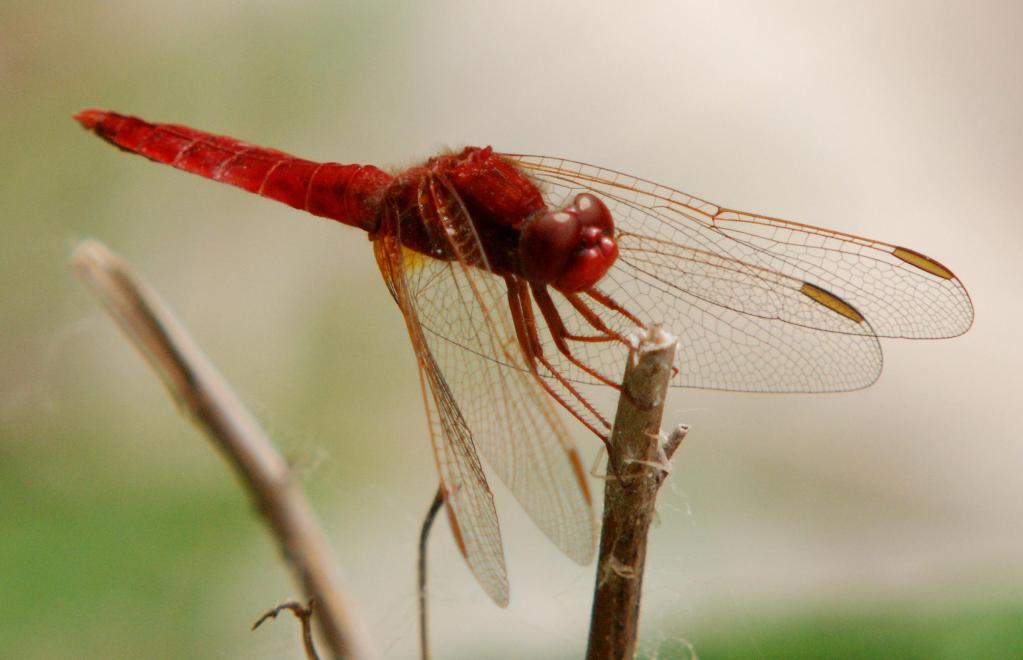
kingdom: Animalia
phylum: Arthropoda
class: Insecta
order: Odonata
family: Libellulidae
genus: Crocothemis
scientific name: Crocothemis erythraea
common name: Scarlet dragonfly
